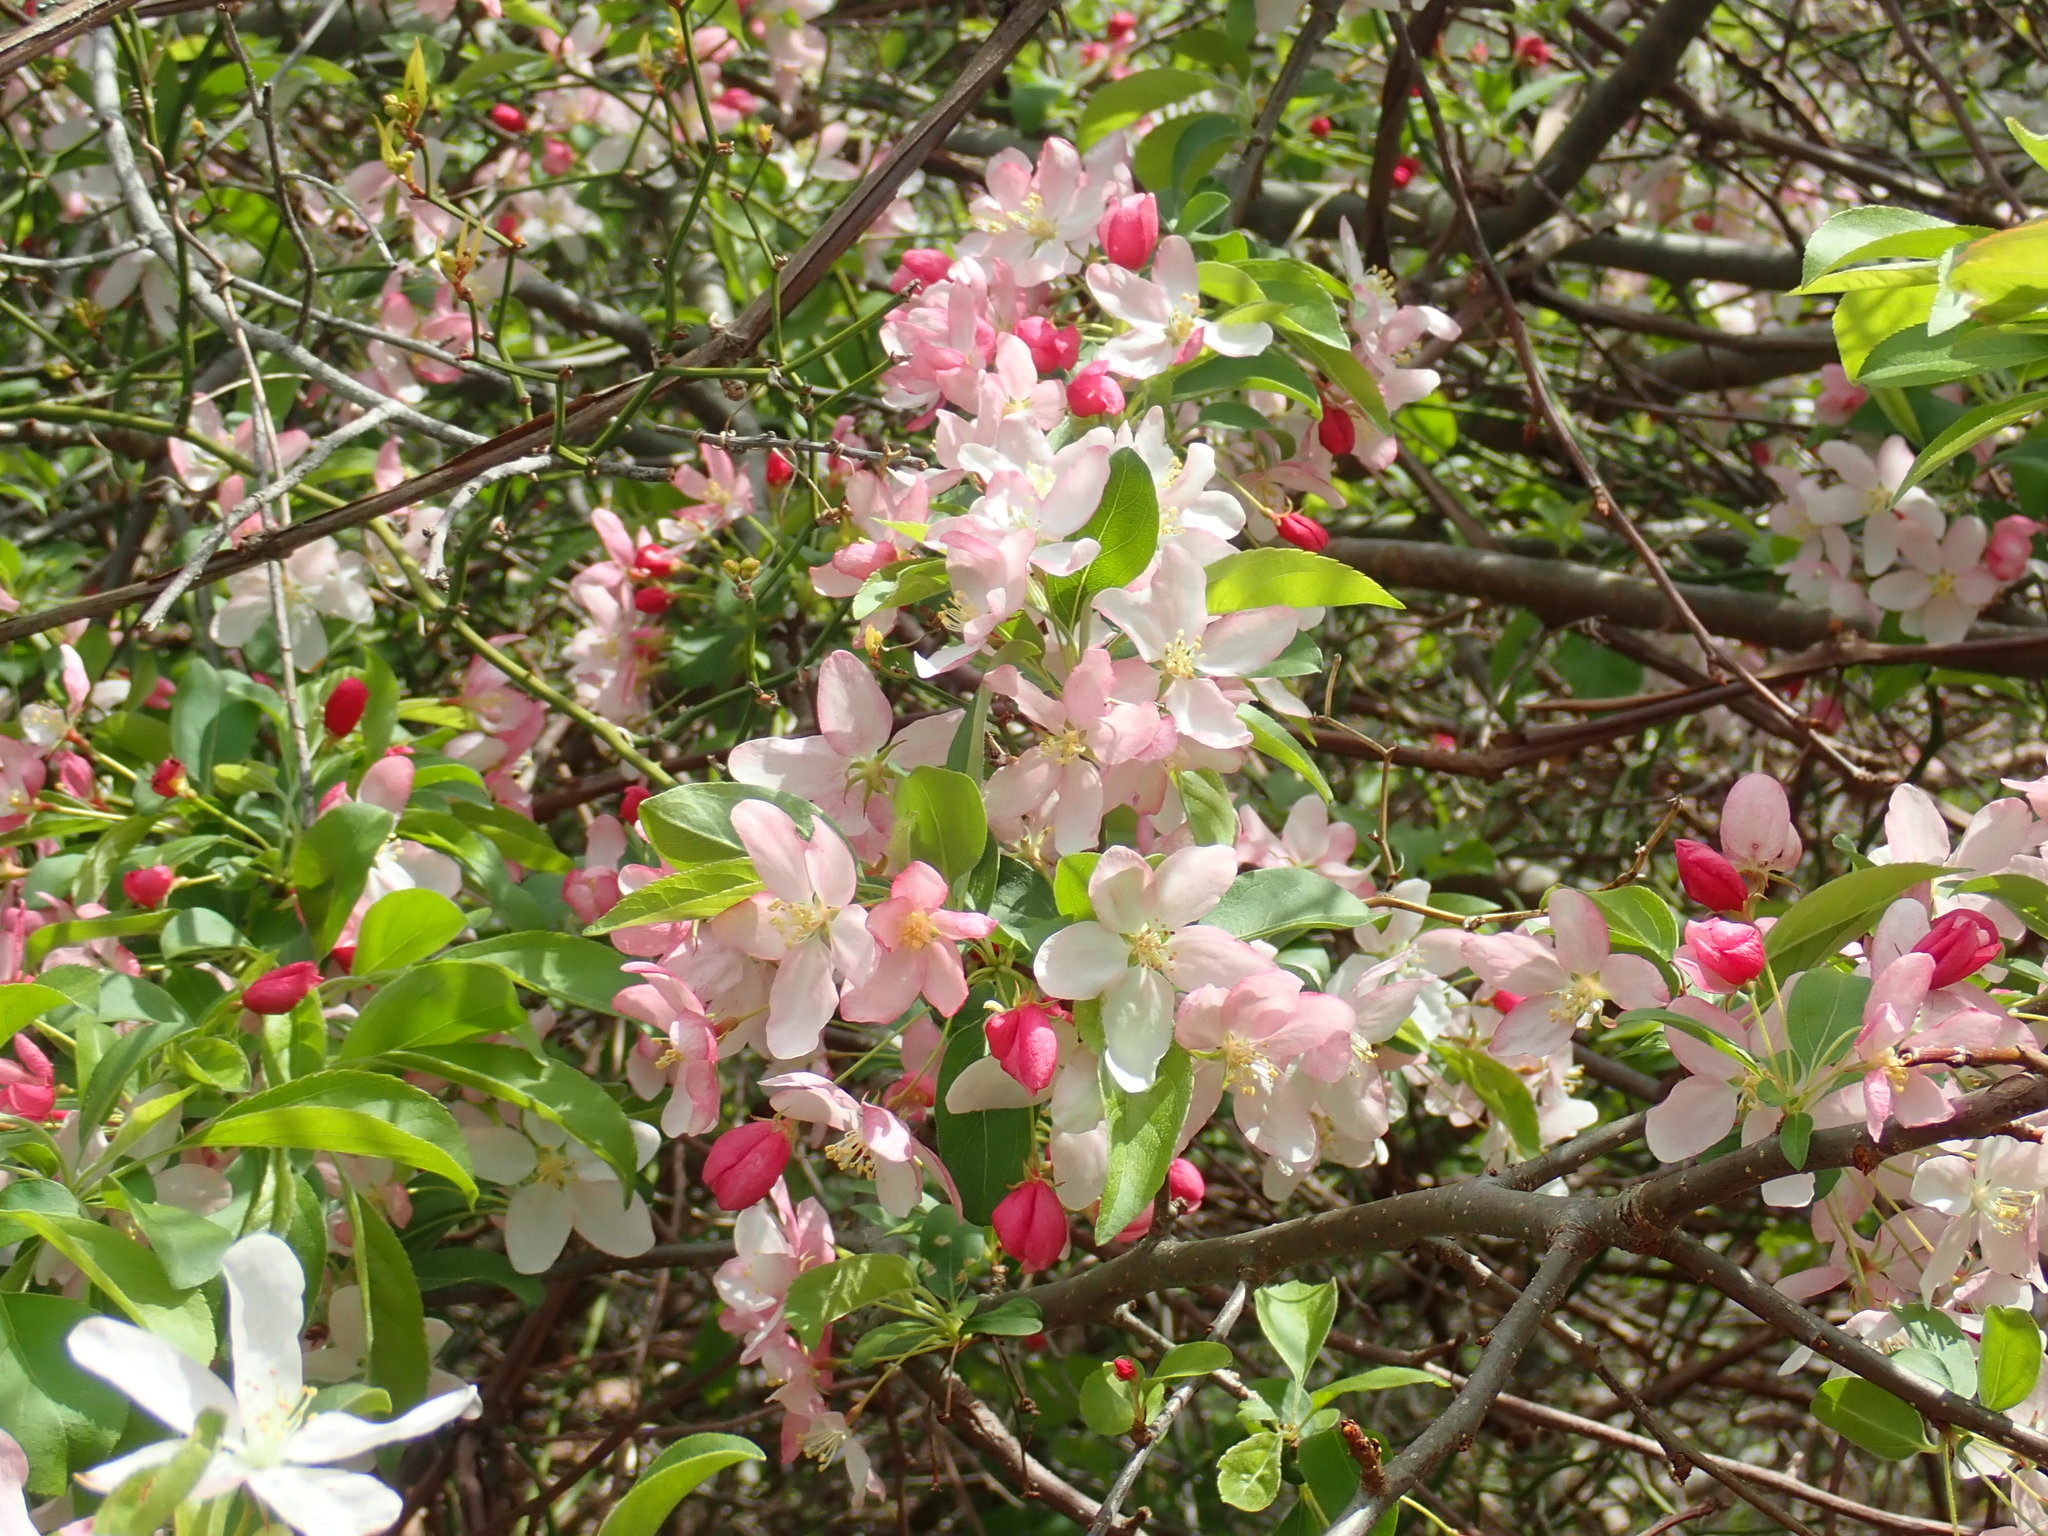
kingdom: Plantae
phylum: Tracheophyta
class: Magnoliopsida
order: Rosales
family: Rosaceae
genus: Malus
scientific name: Malus
